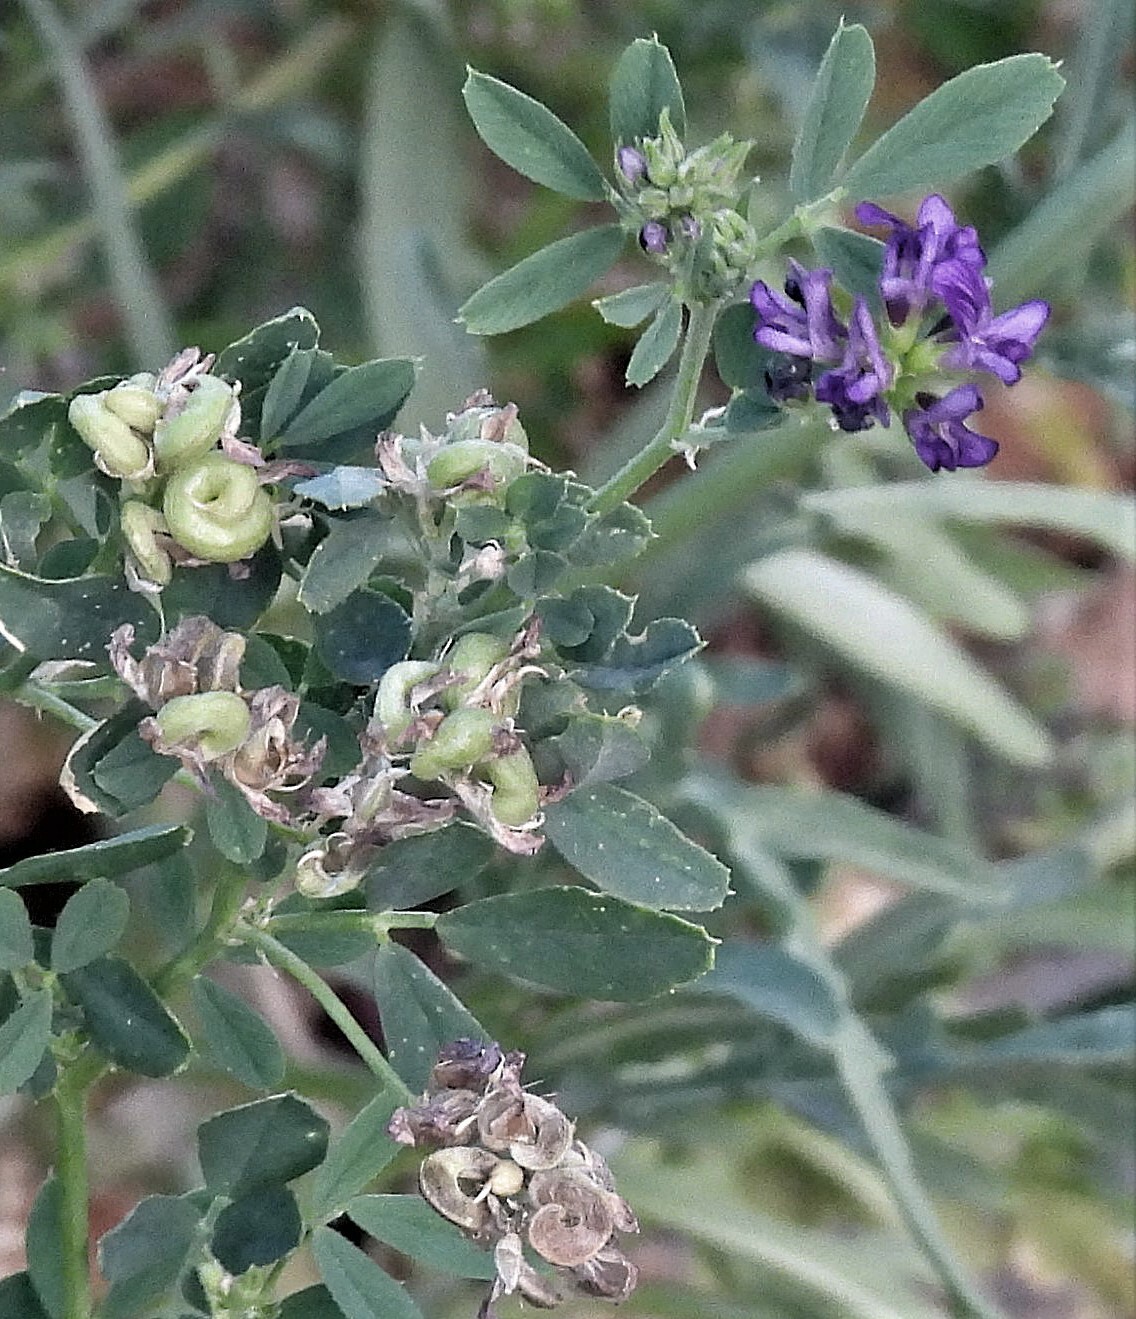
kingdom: Plantae
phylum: Tracheophyta
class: Magnoliopsida
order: Fabales
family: Fabaceae
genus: Medicago
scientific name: Medicago sativa
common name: Alfalfa
